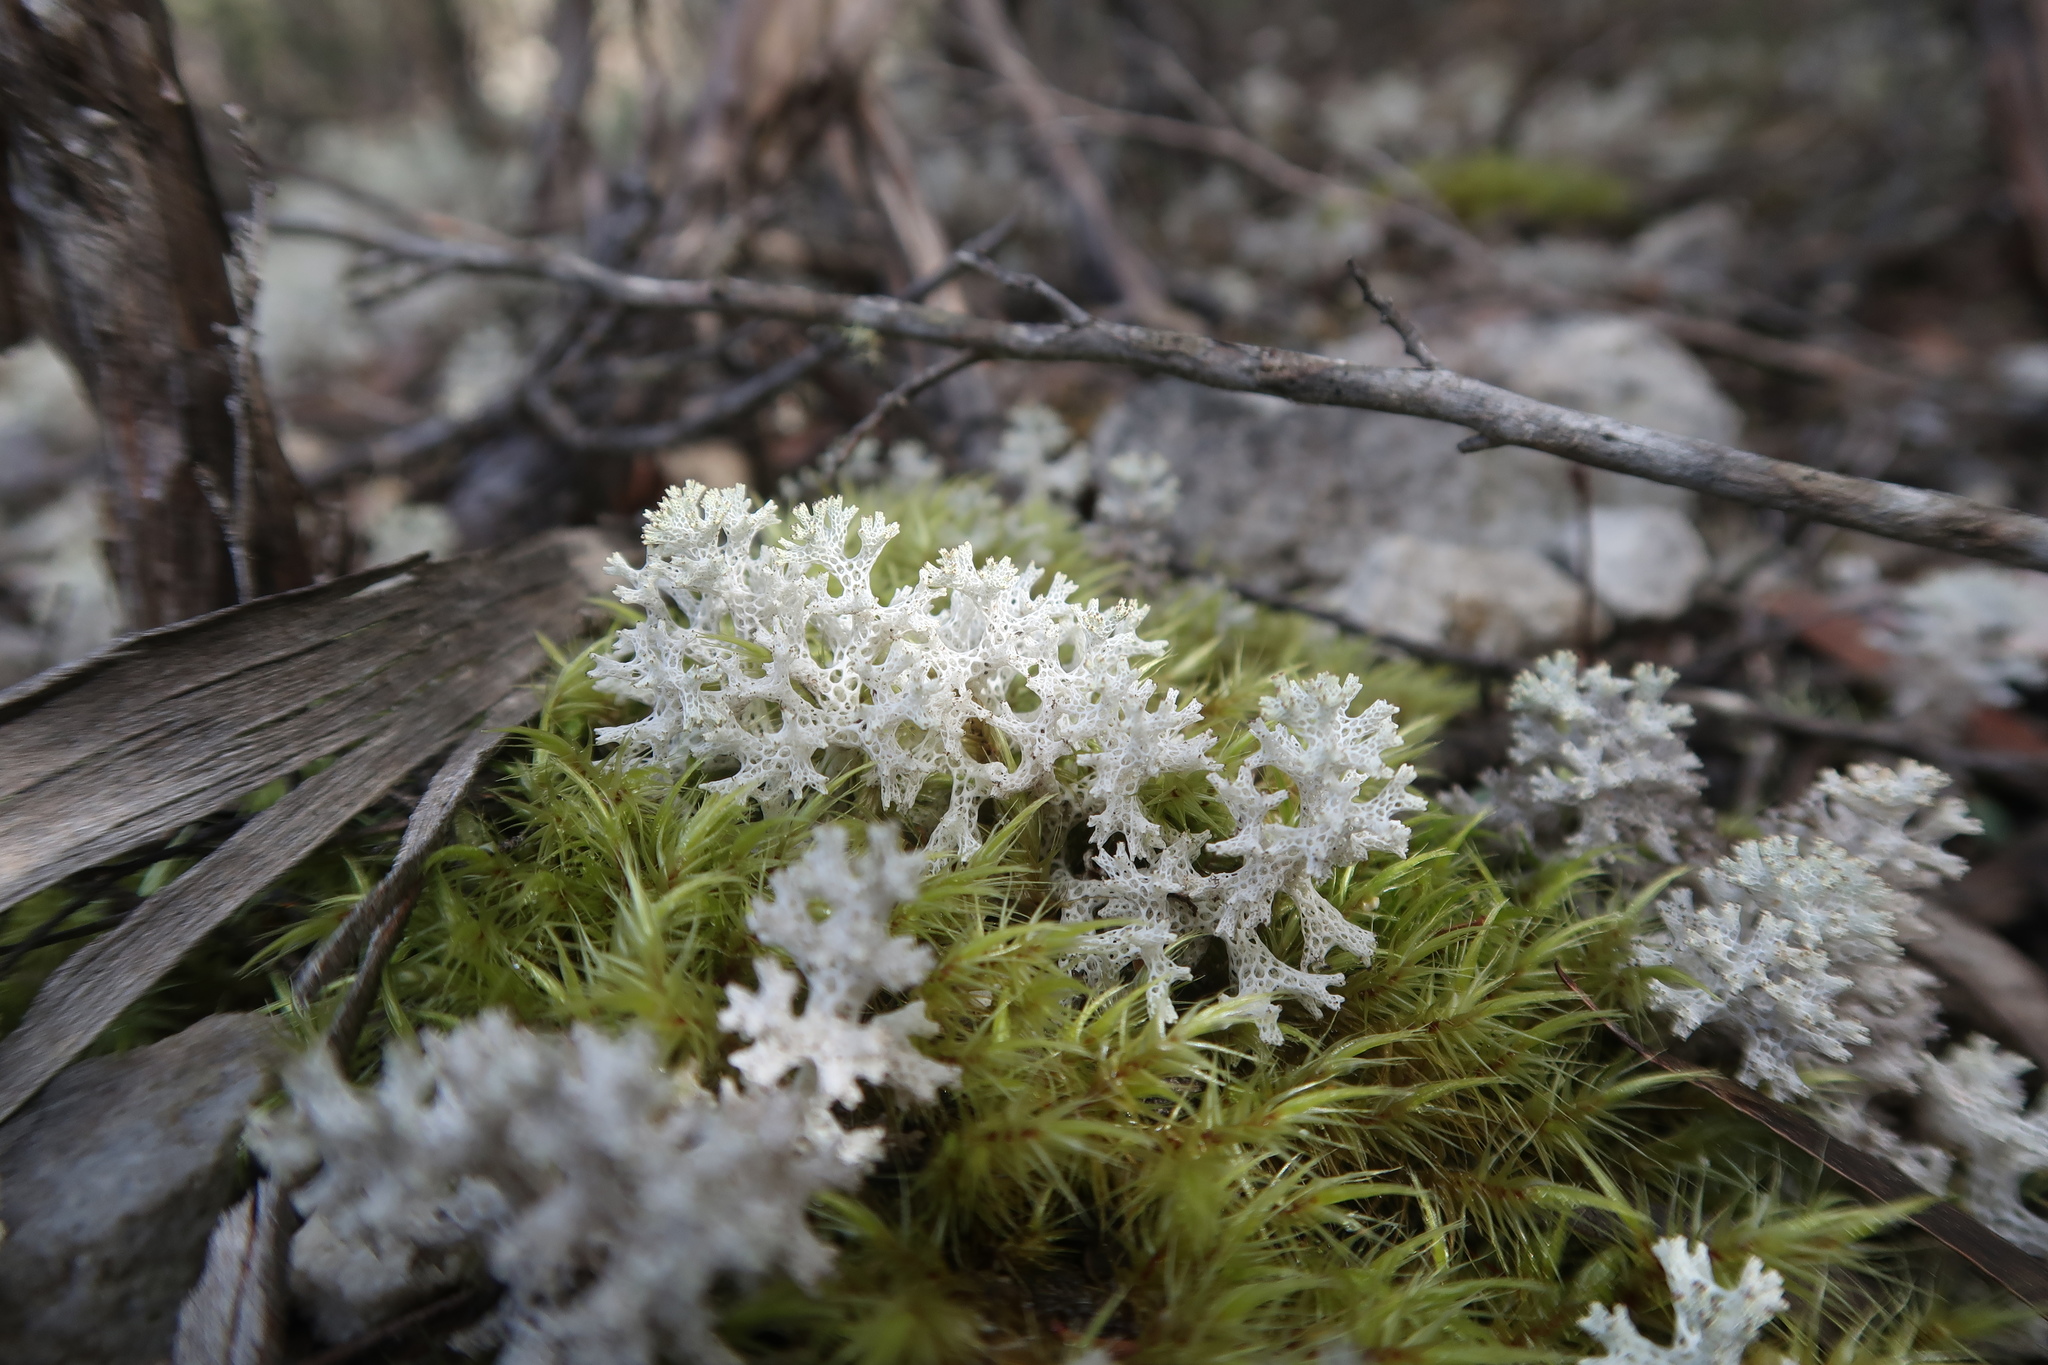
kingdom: Fungi
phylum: Ascomycota
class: Lecanoromycetes
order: Lecanorales
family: Cladoniaceae
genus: Pulchrocladia
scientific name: Pulchrocladia retipora
